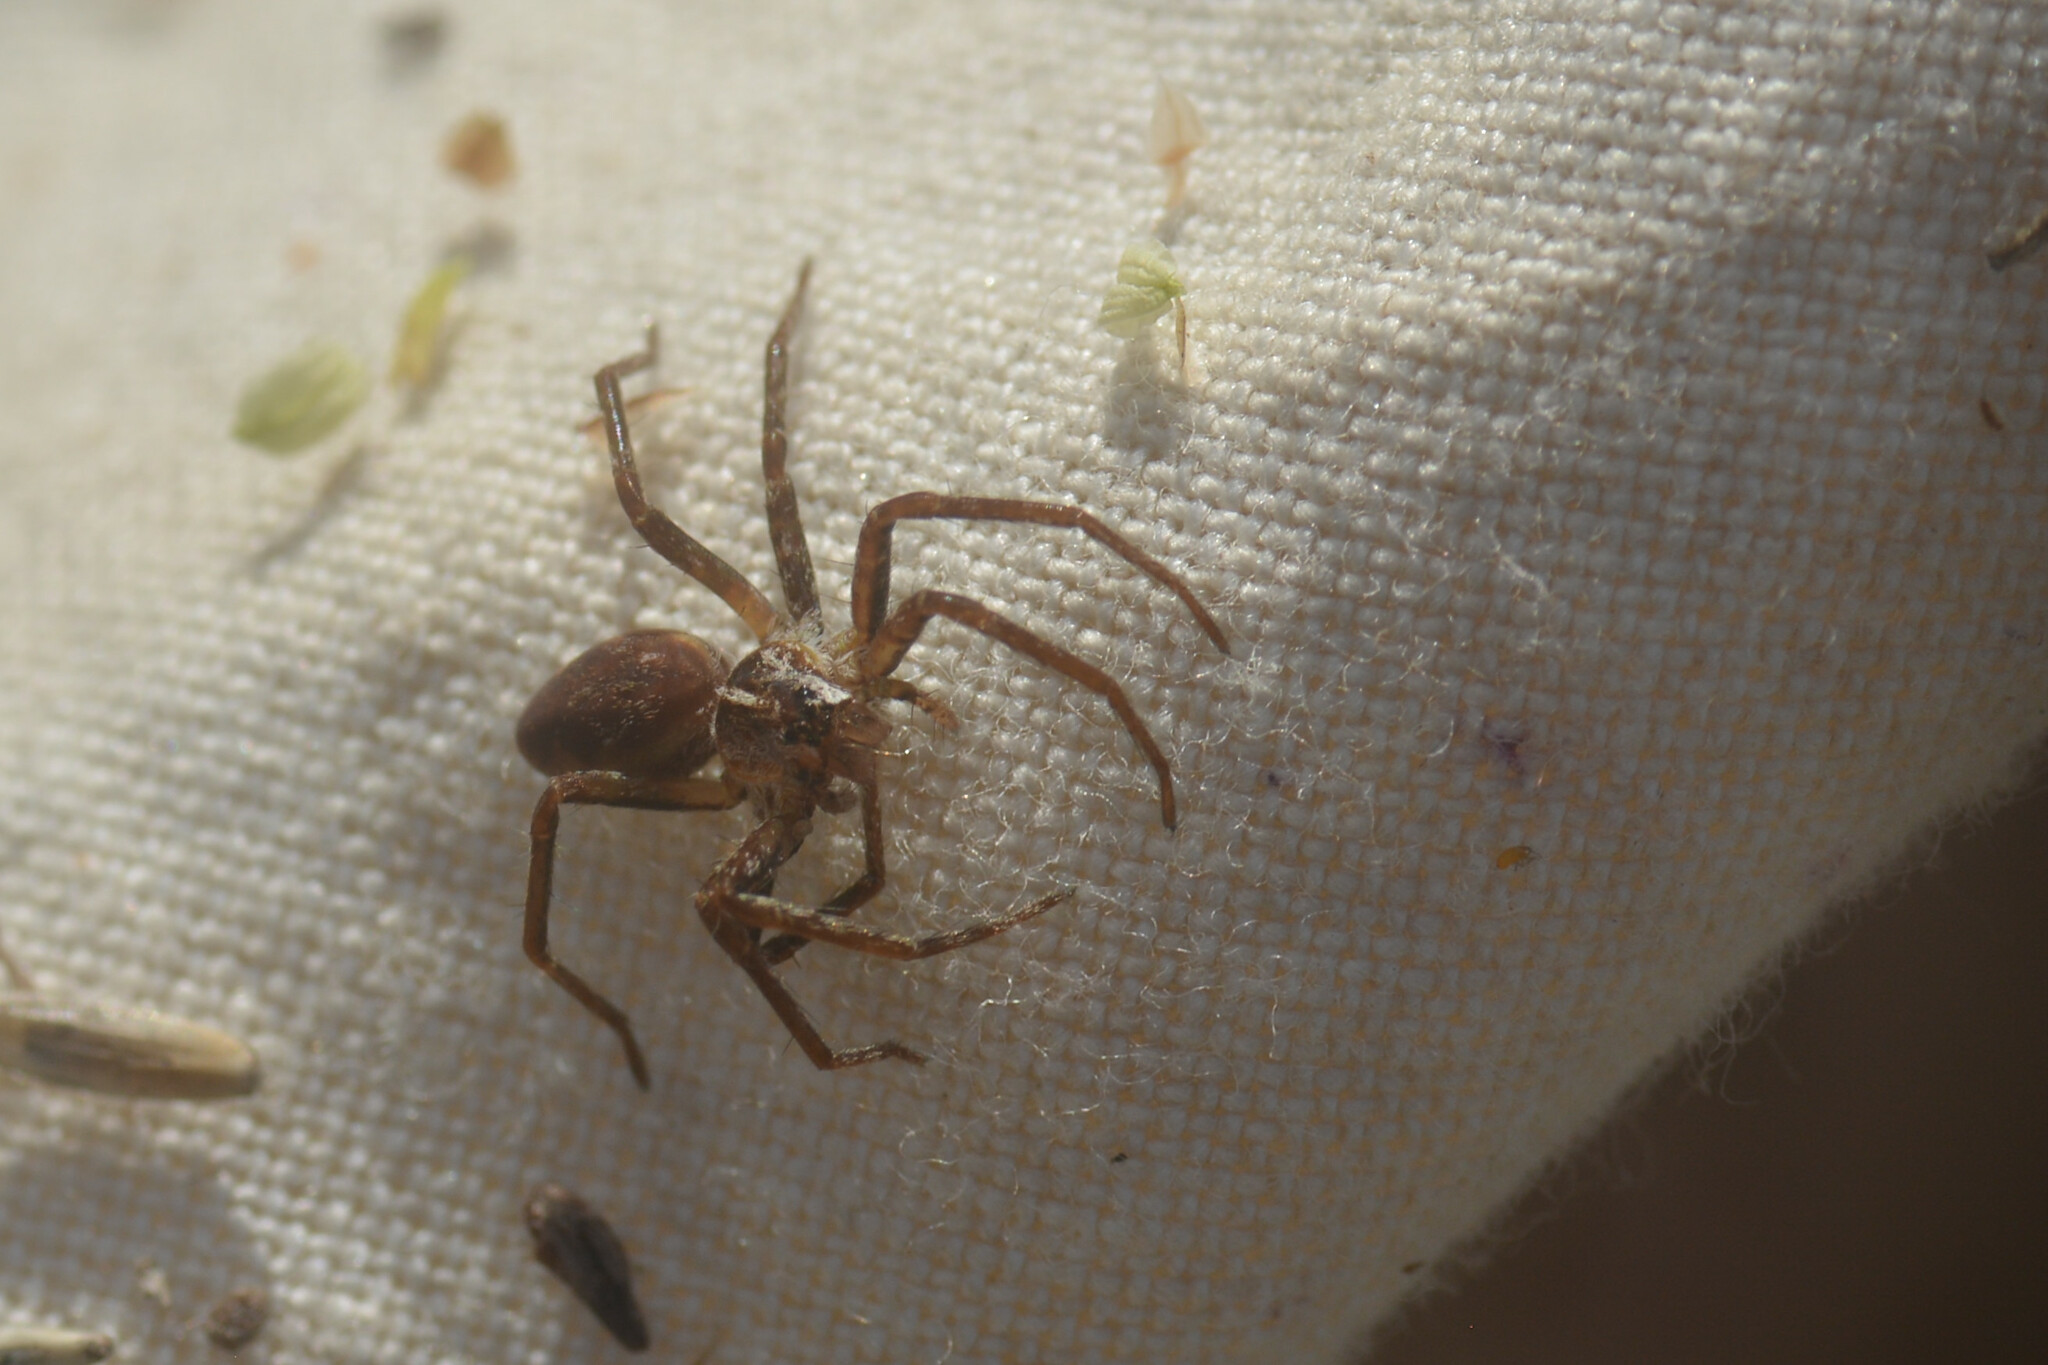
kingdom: Animalia
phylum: Arthropoda
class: Arachnida
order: Araneae
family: Pisauridae
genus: Pisaura
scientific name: Pisaura mirabilis
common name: Tent spider
